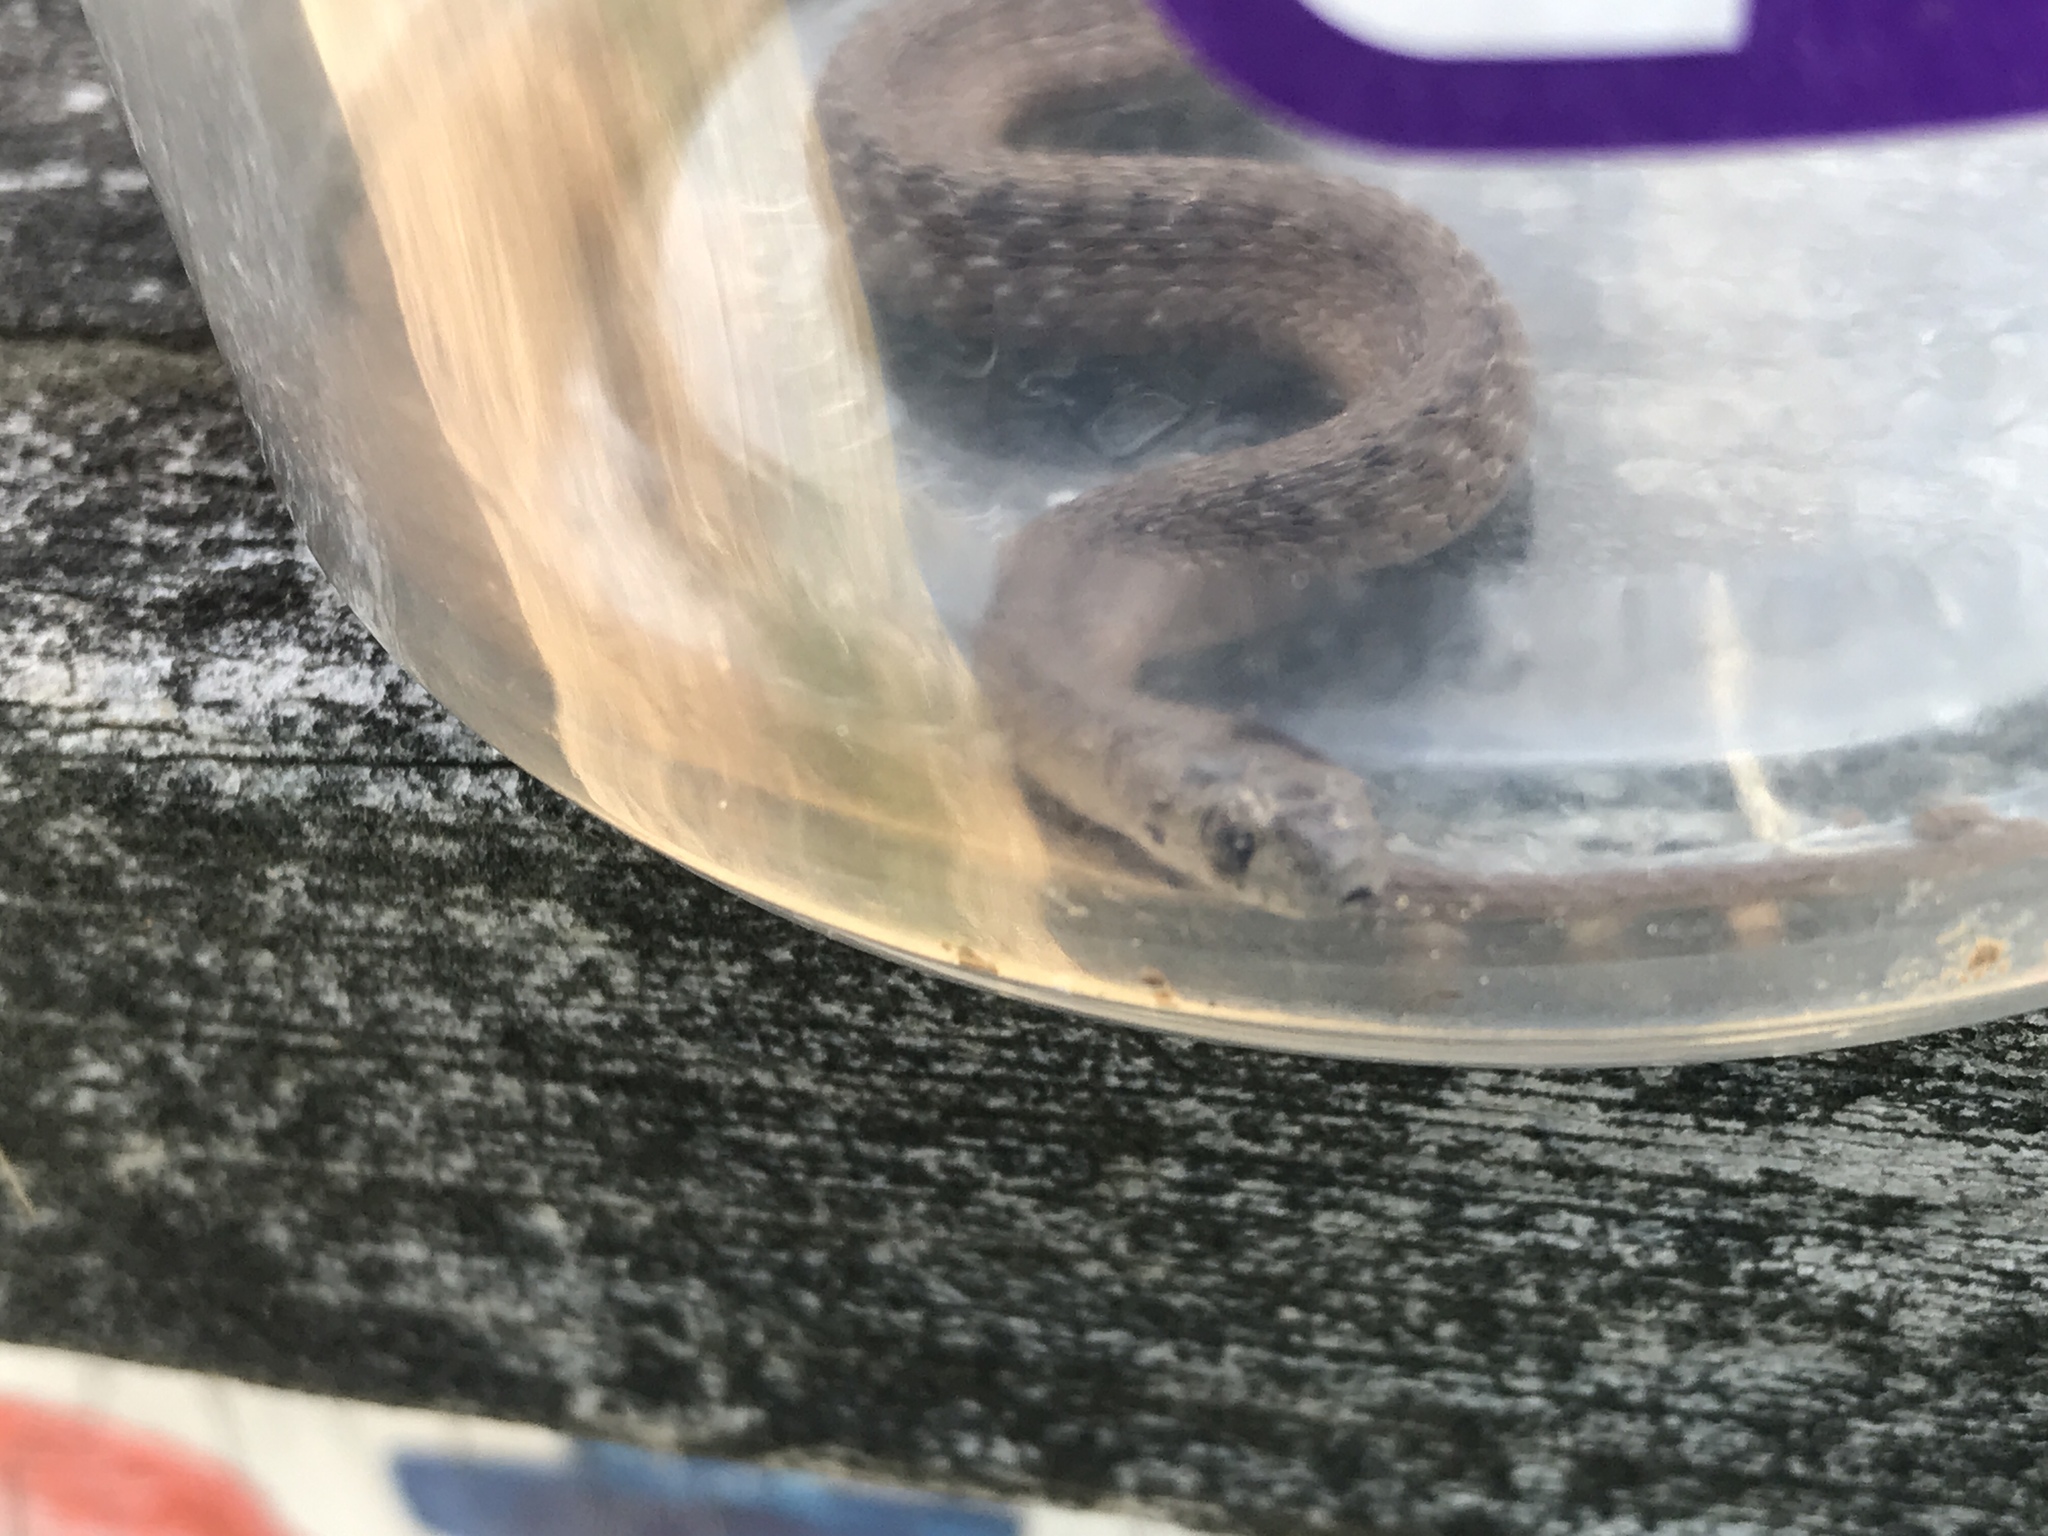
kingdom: Animalia
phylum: Chordata
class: Squamata
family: Colubridae
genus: Storeria
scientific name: Storeria dekayi
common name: (dekay’s) brown snake
